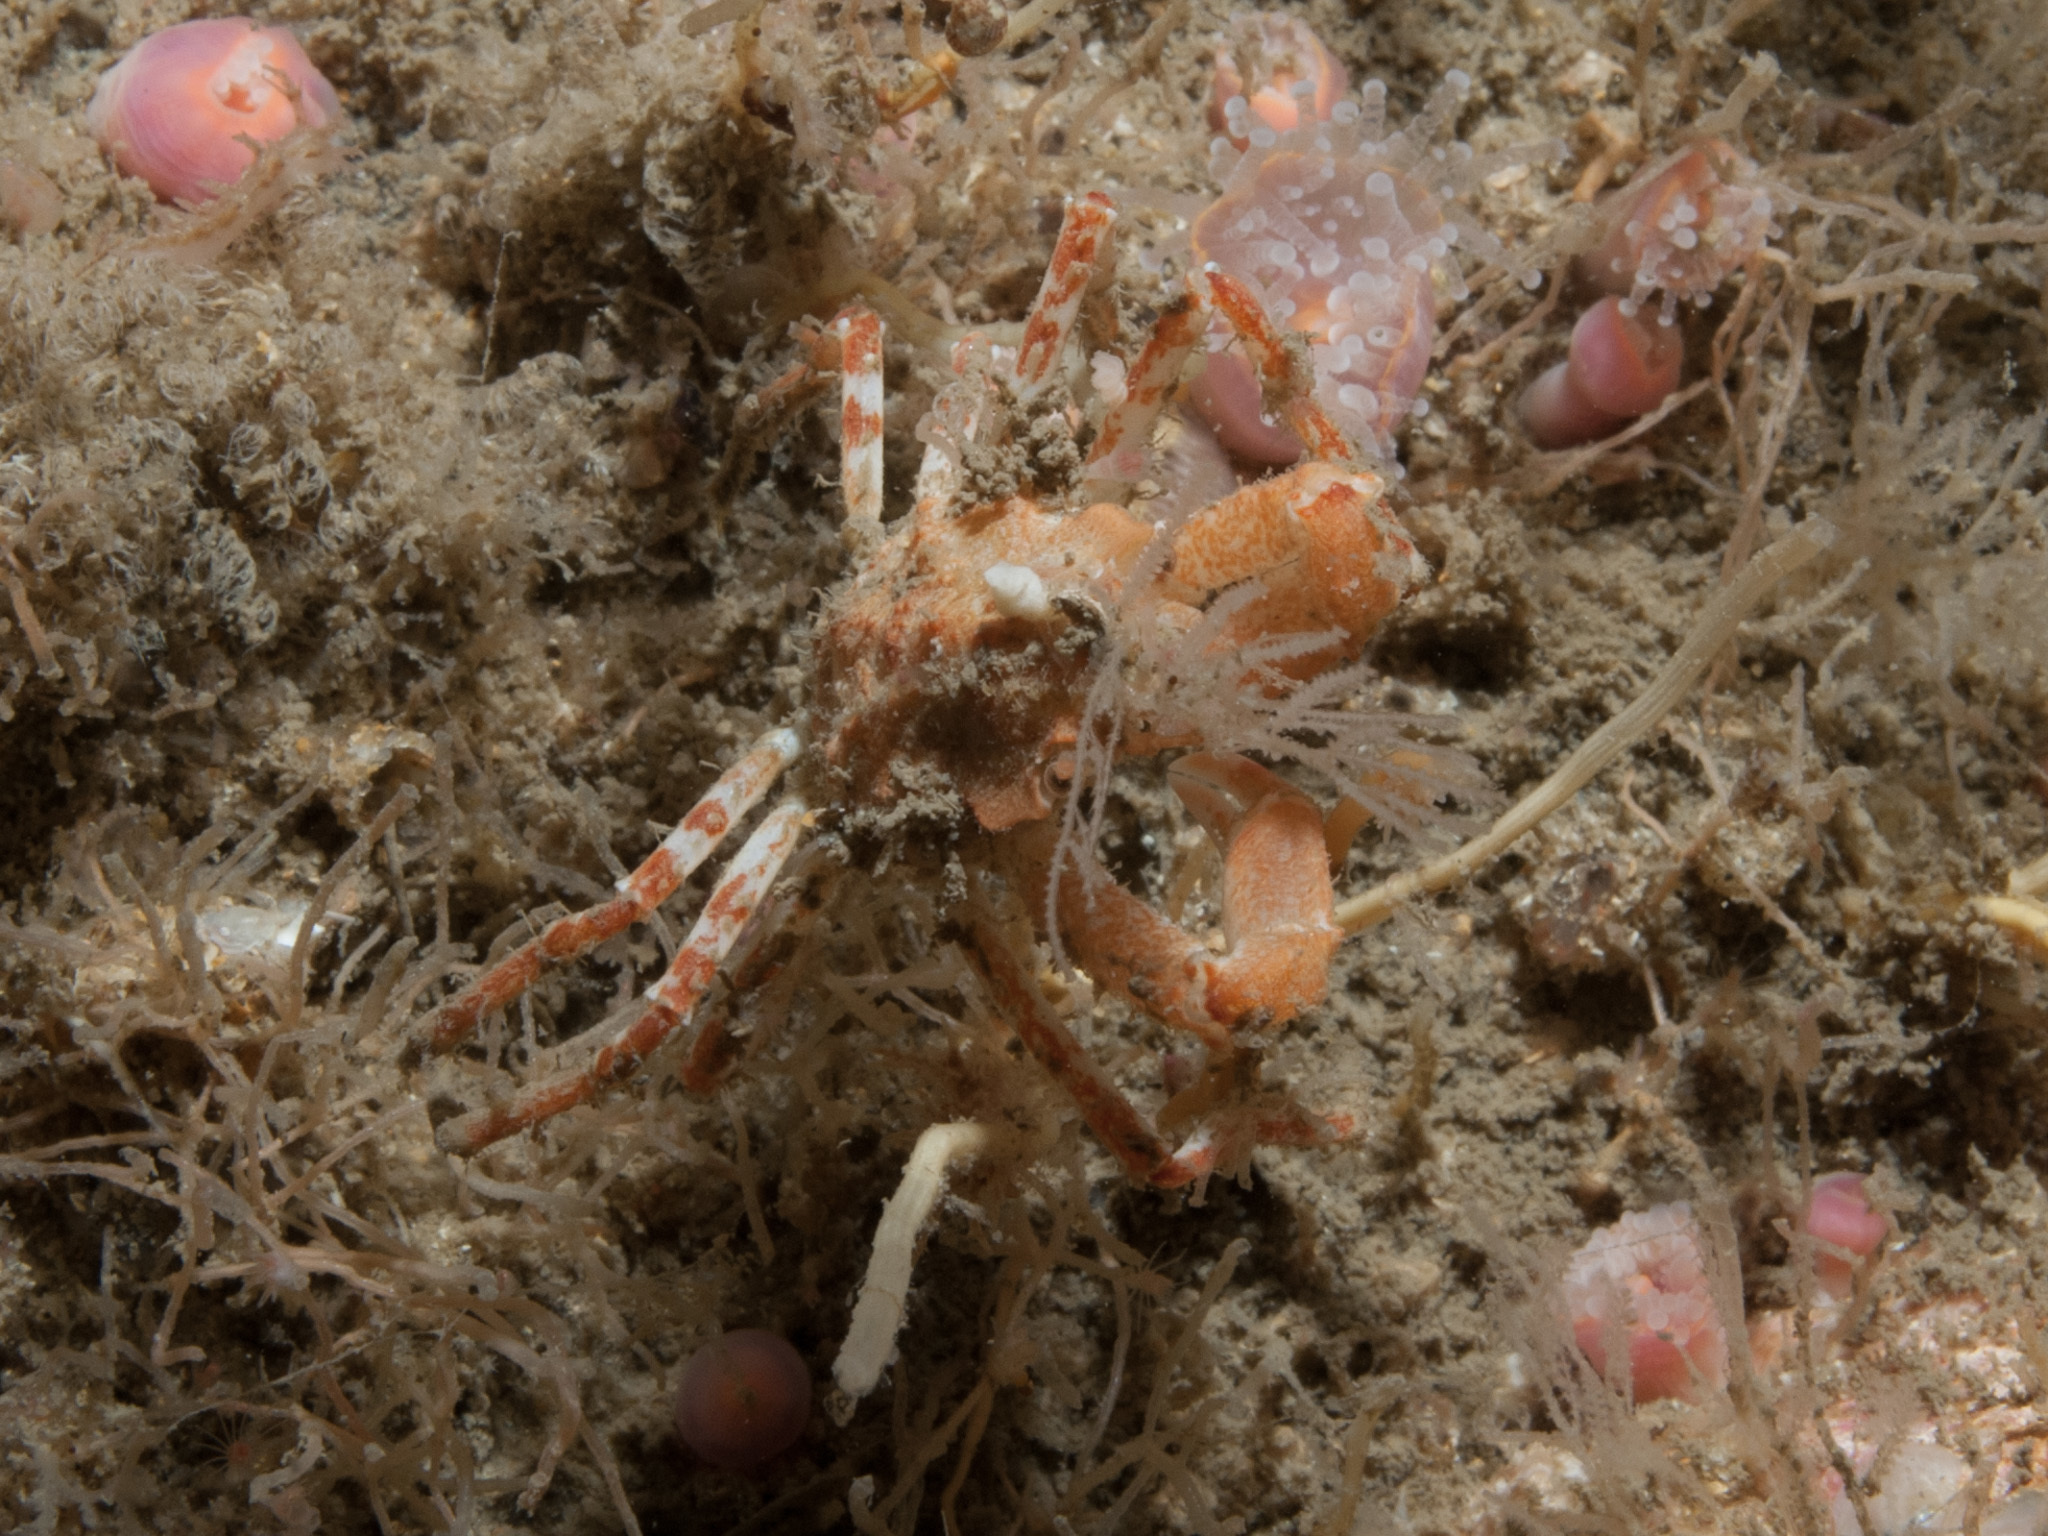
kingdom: Animalia
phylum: Arthropoda
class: Malacostraca
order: Decapoda
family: Oregoniidae
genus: Hyas
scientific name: Hyas coarctatus
